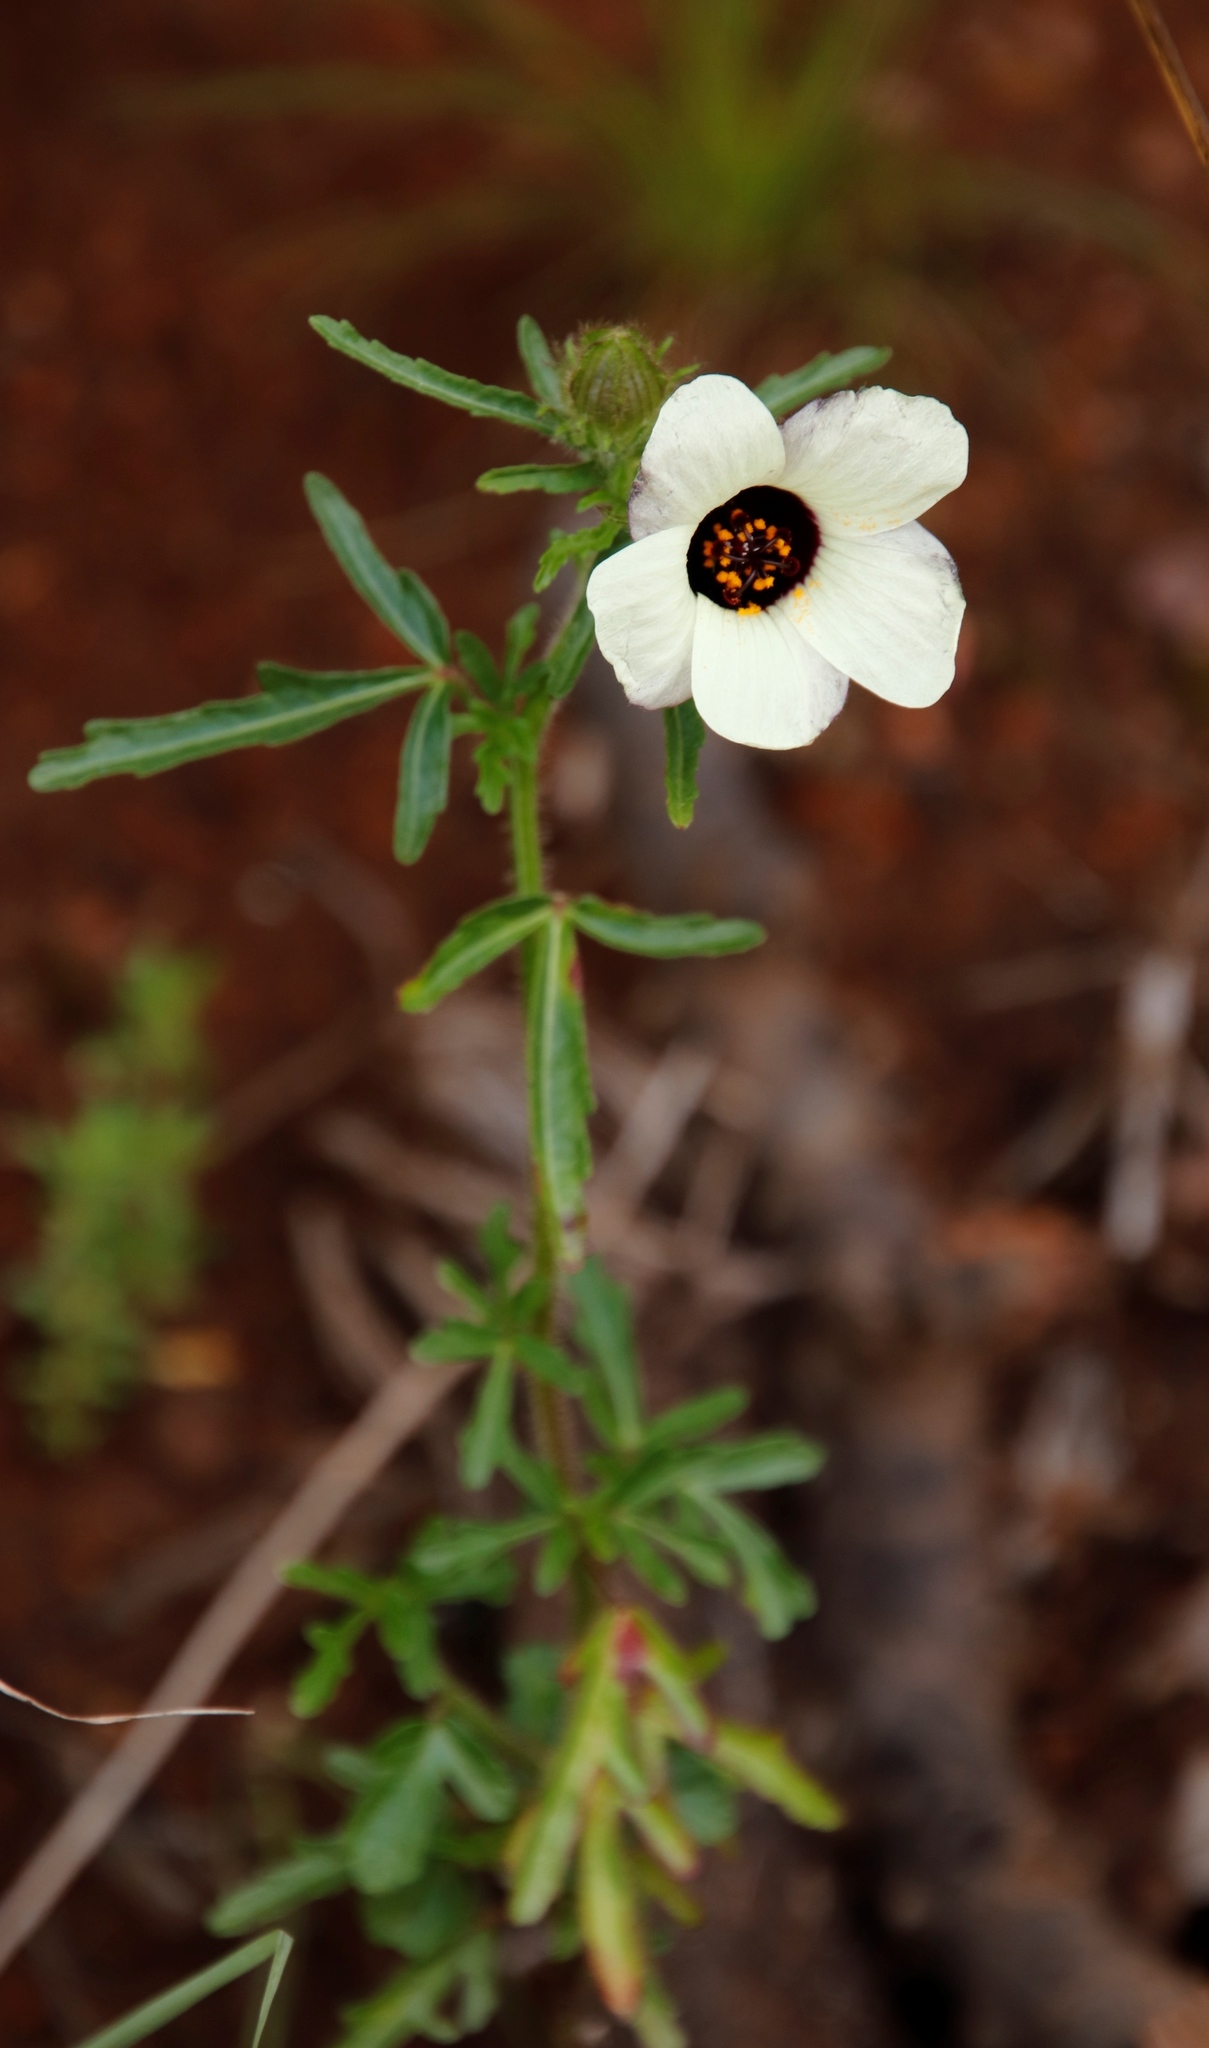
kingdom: Plantae
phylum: Tracheophyta
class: Magnoliopsida
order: Malvales
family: Malvaceae
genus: Hibiscus
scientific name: Hibiscus trionum
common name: Bladder ketmia
